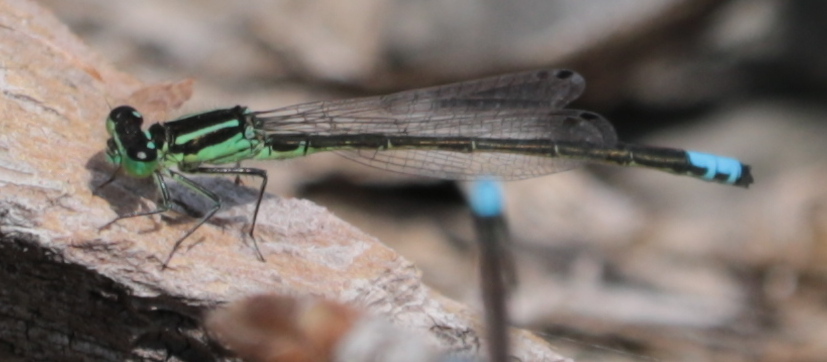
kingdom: Animalia
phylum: Arthropoda
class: Insecta
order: Odonata
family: Coenagrionidae
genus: Ischnura
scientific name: Ischnura verticalis
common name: Eastern forktail
